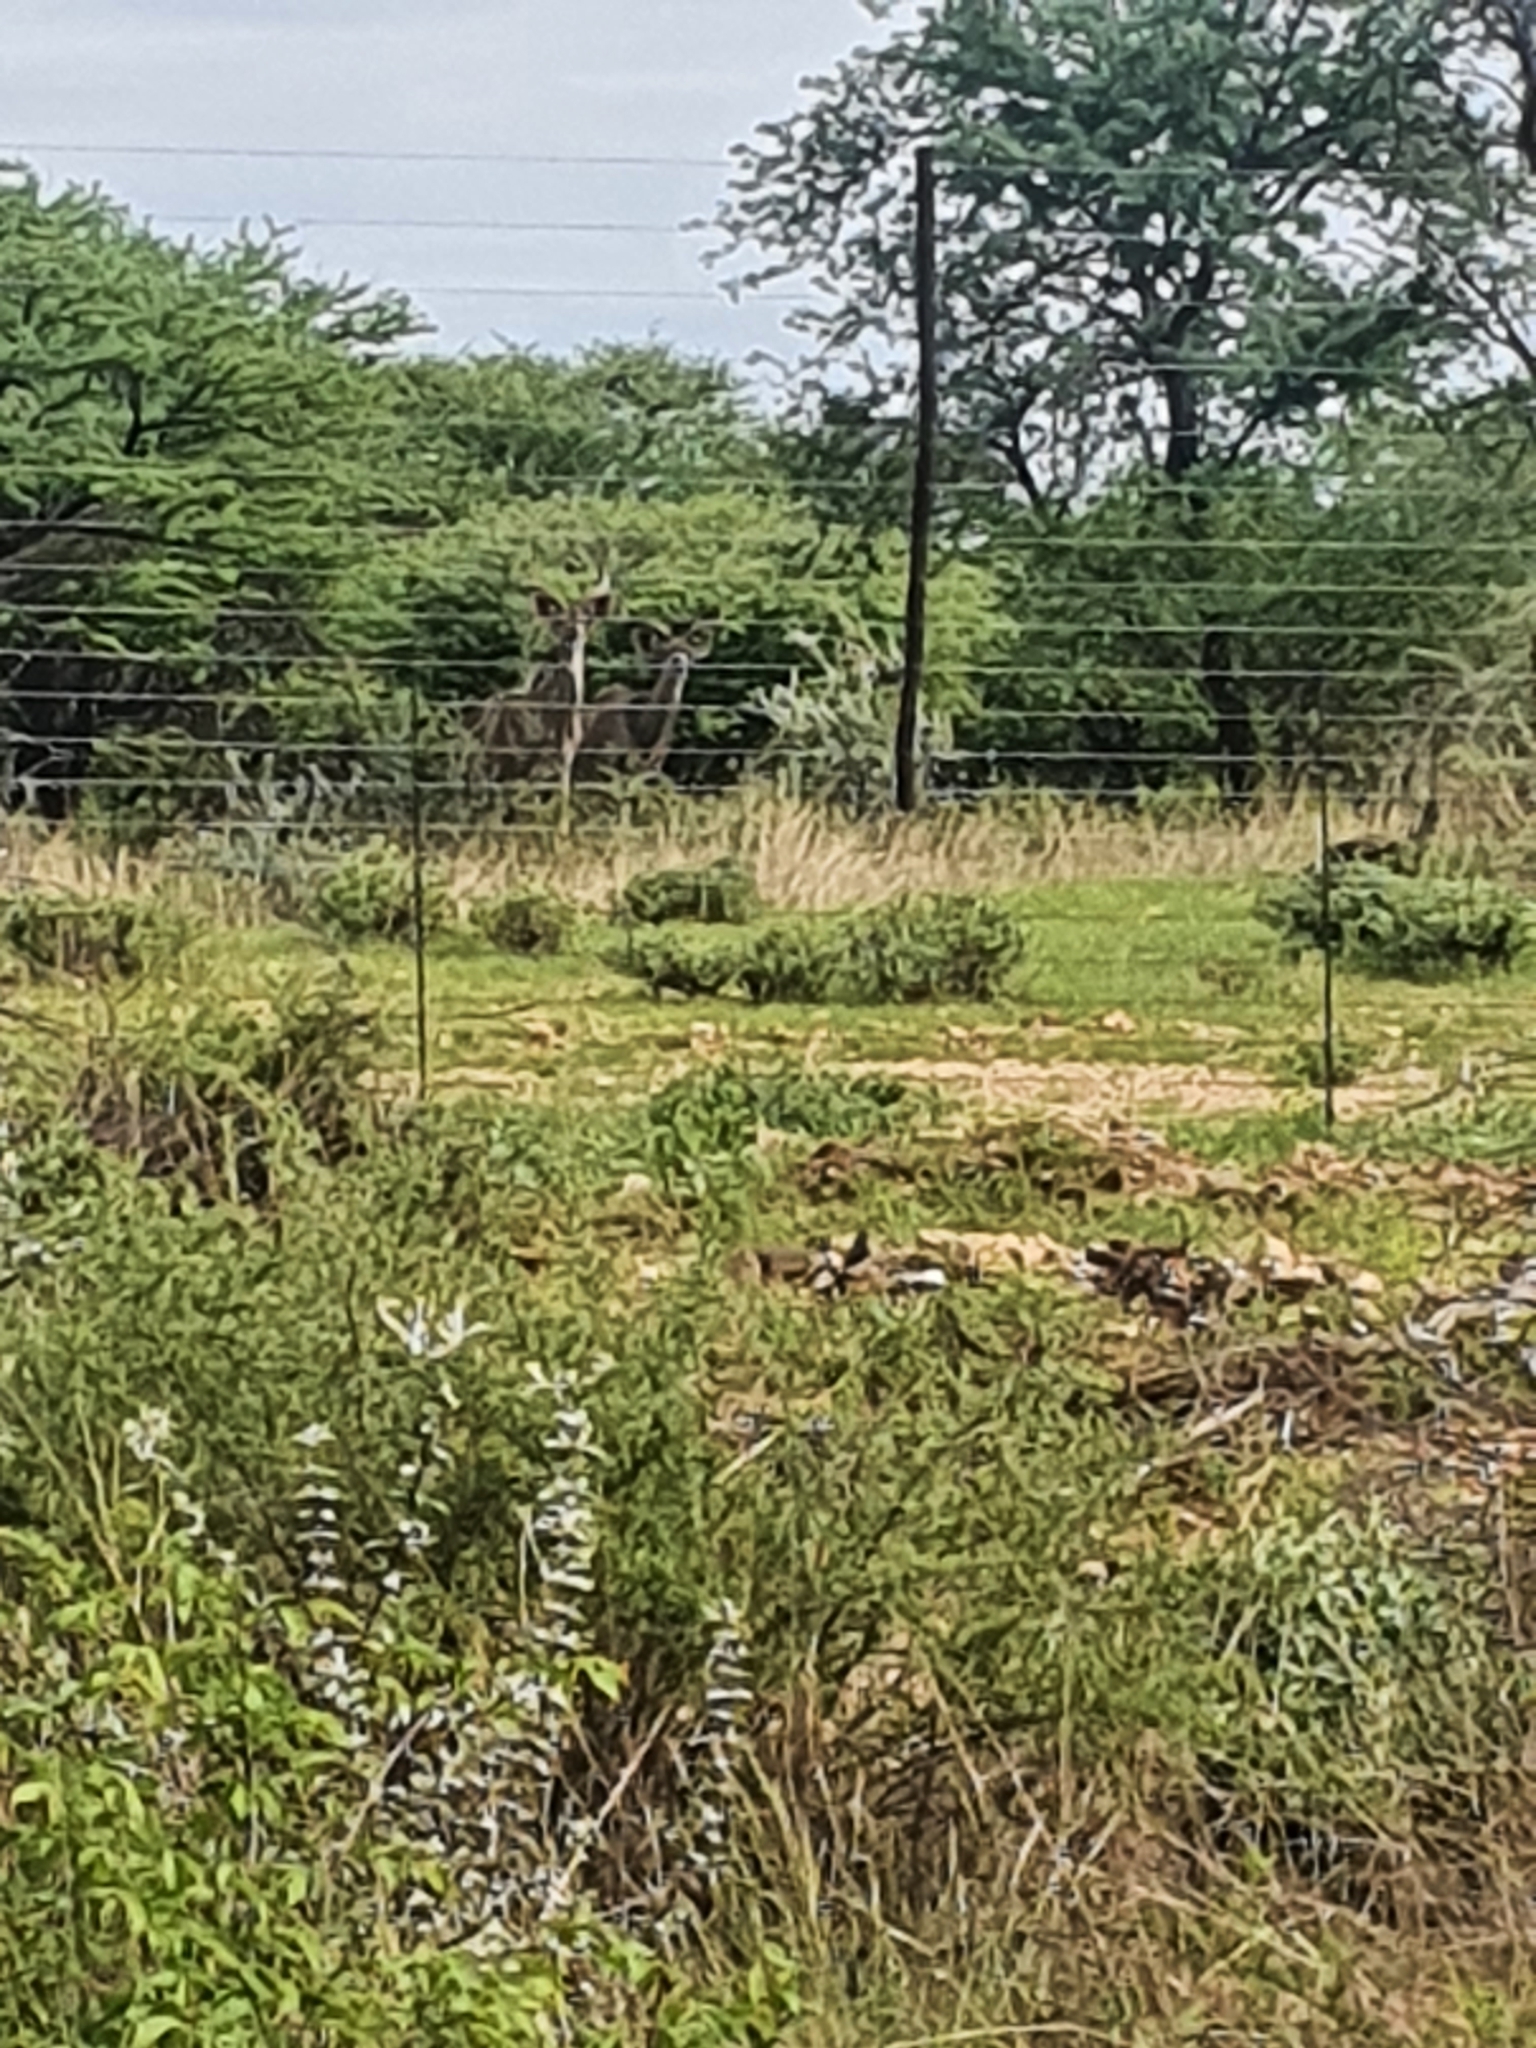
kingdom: Animalia
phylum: Chordata
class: Mammalia
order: Artiodactyla
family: Bovidae
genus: Tragelaphus
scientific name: Tragelaphus strepsiceros
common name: Greater kudu
